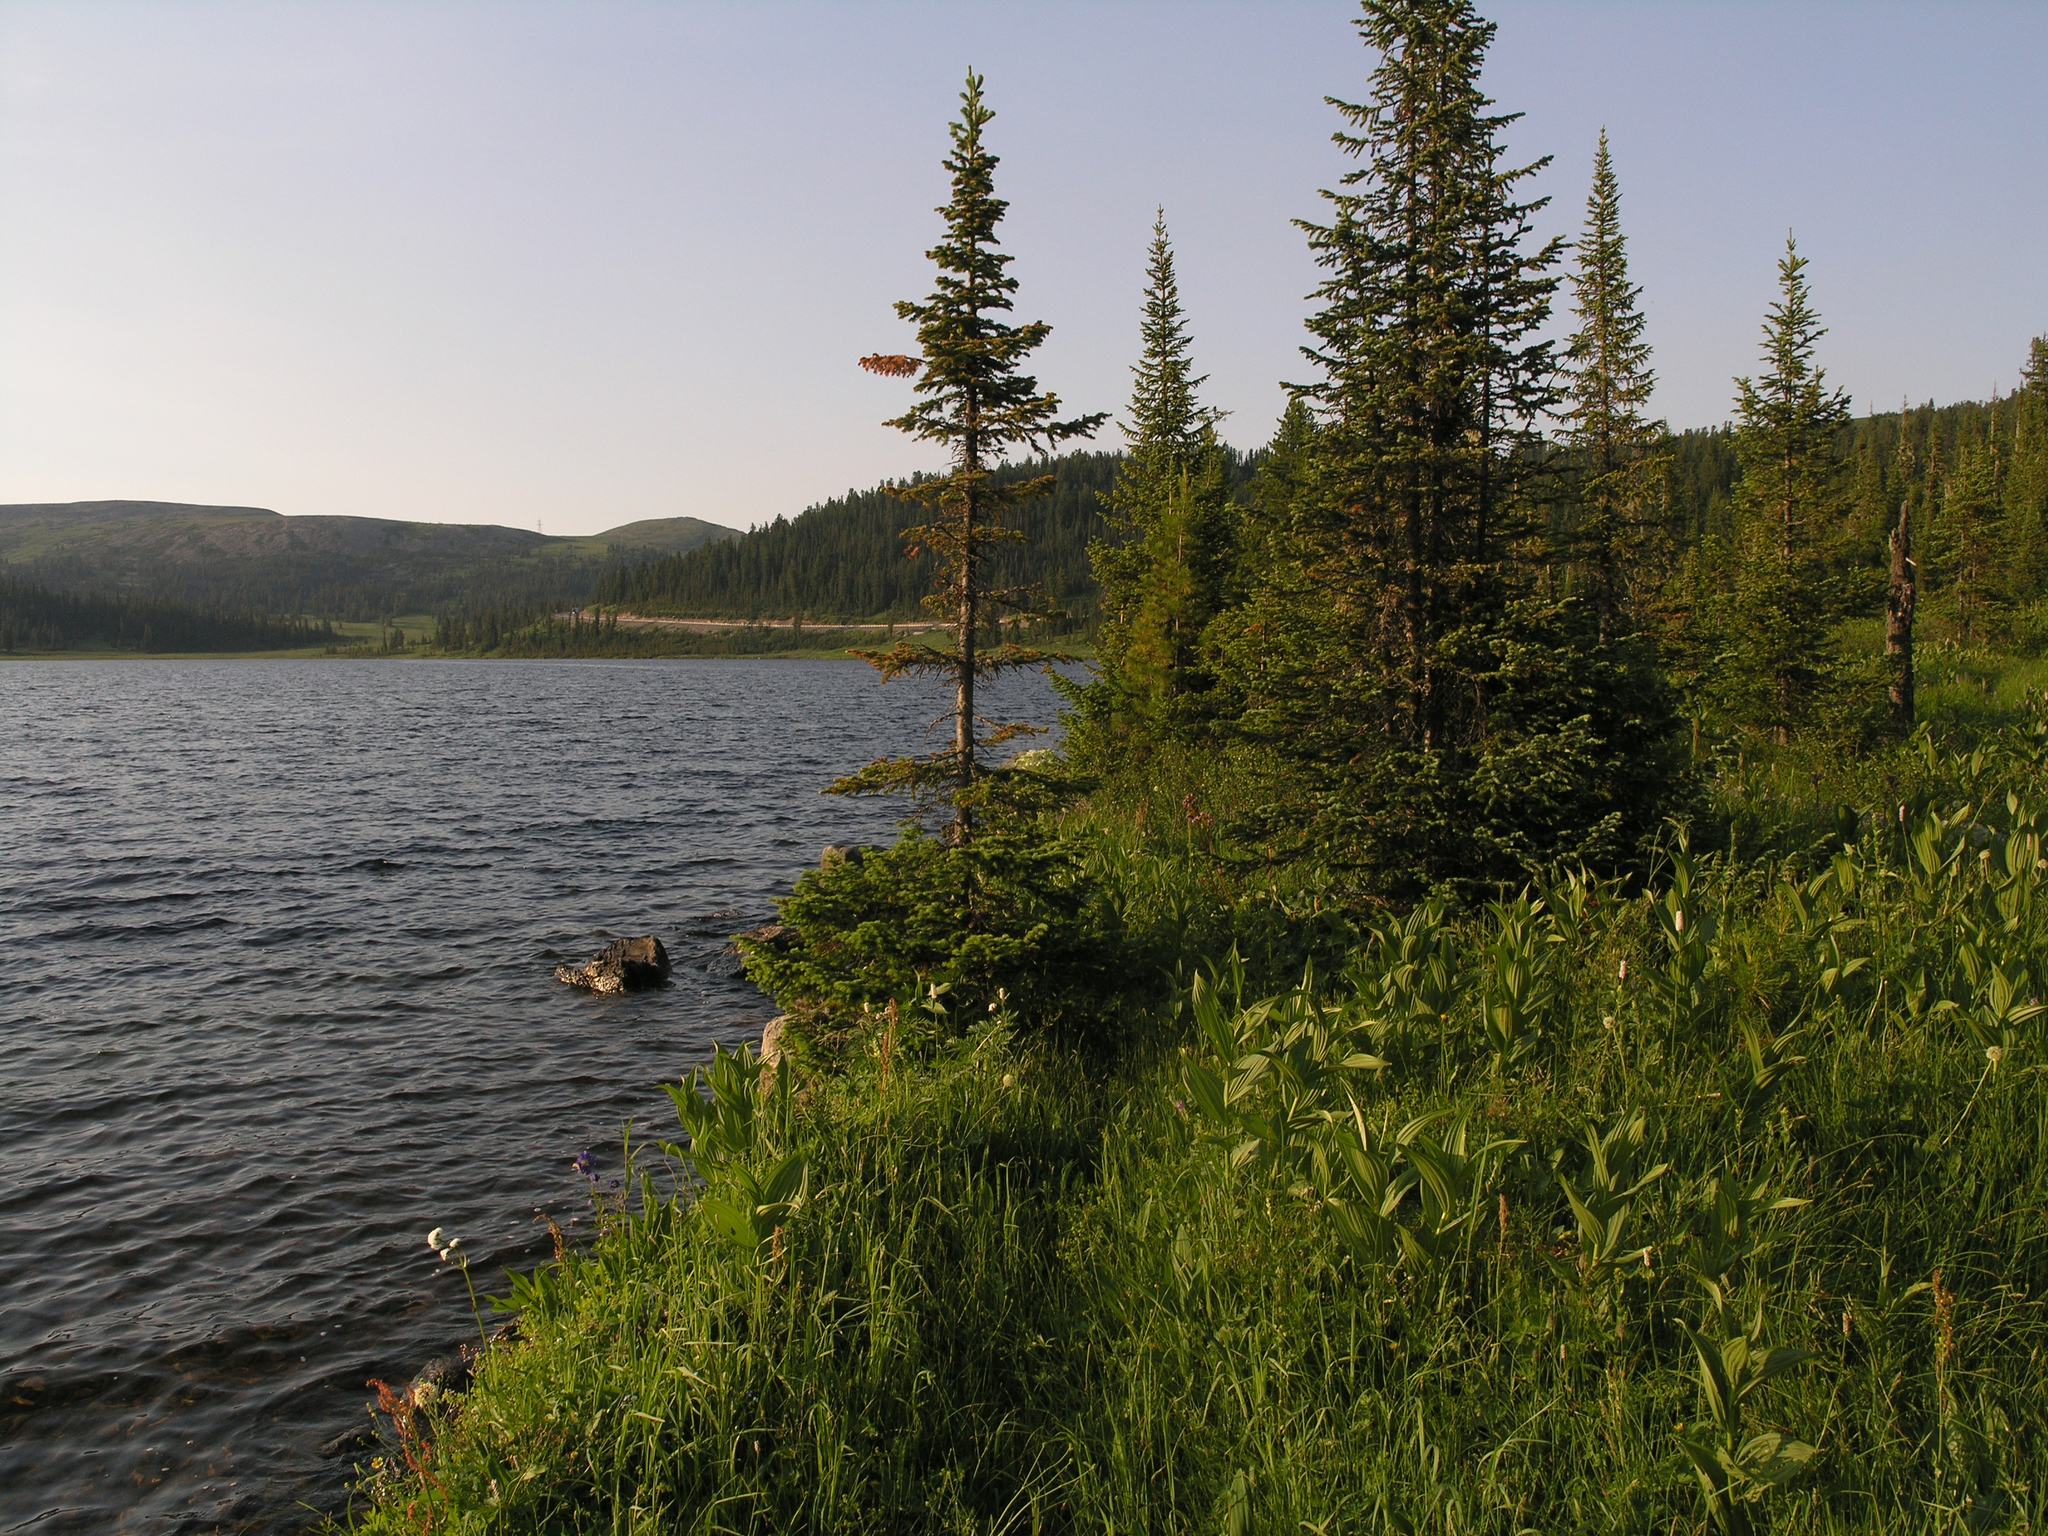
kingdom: Plantae
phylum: Tracheophyta
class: Pinopsida
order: Pinales
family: Pinaceae
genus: Abies
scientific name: Abies sibirica
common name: Siberian fir
